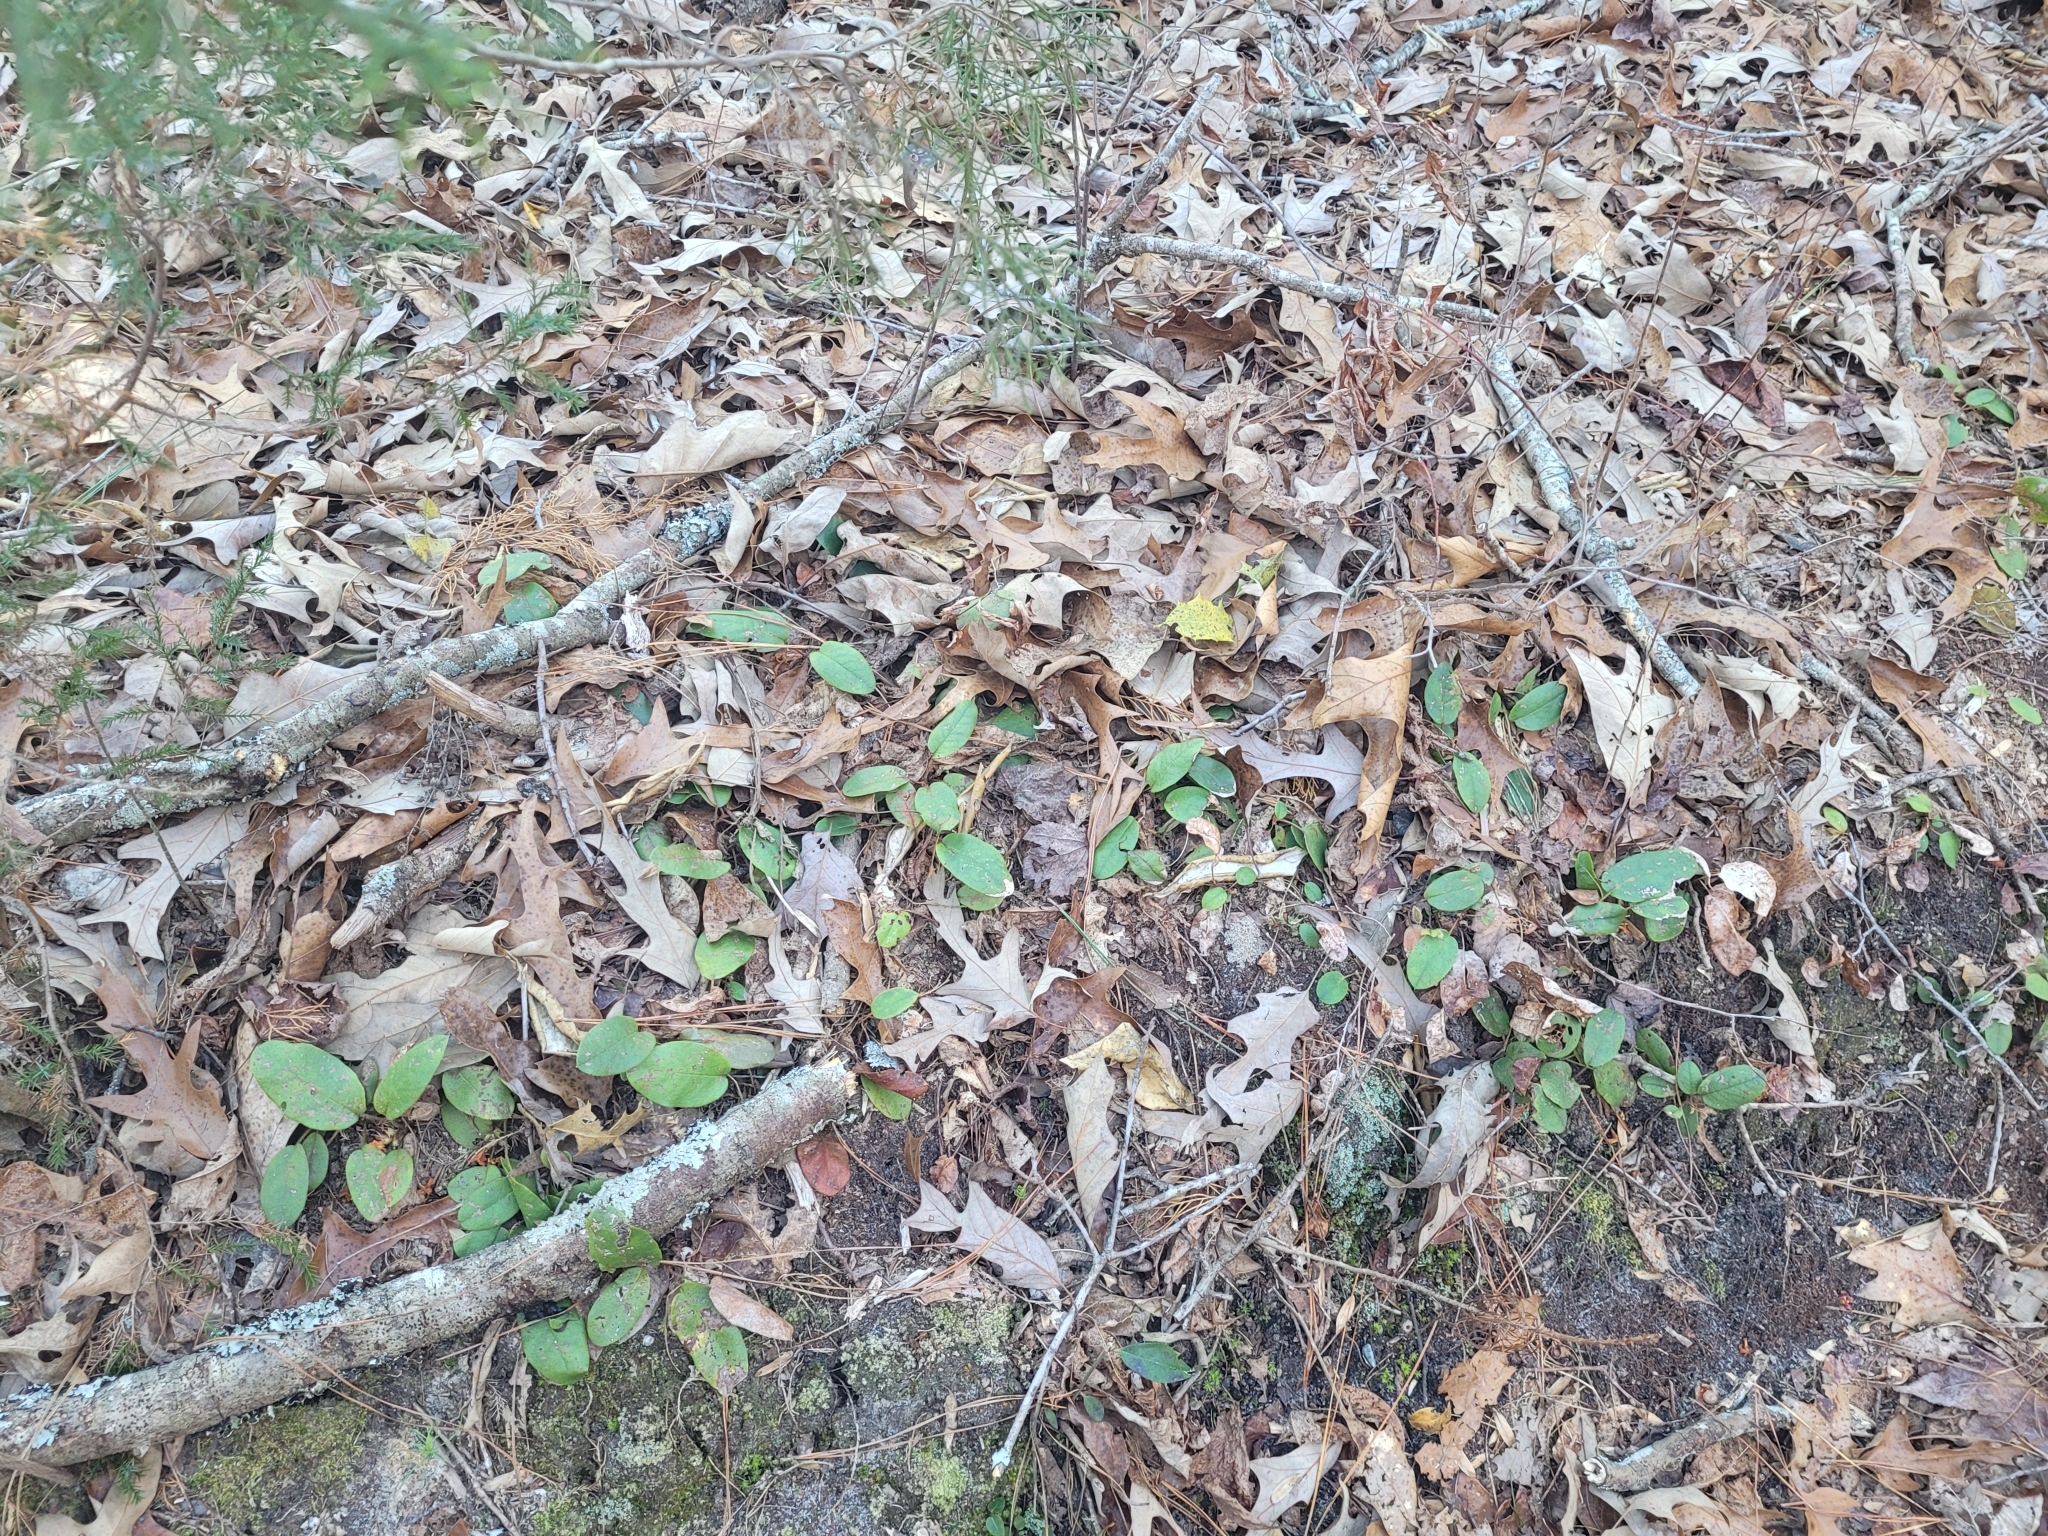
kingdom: Plantae
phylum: Tracheophyta
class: Magnoliopsida
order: Ericales
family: Ericaceae
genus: Epigaea
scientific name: Epigaea repens
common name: Gravelroot
